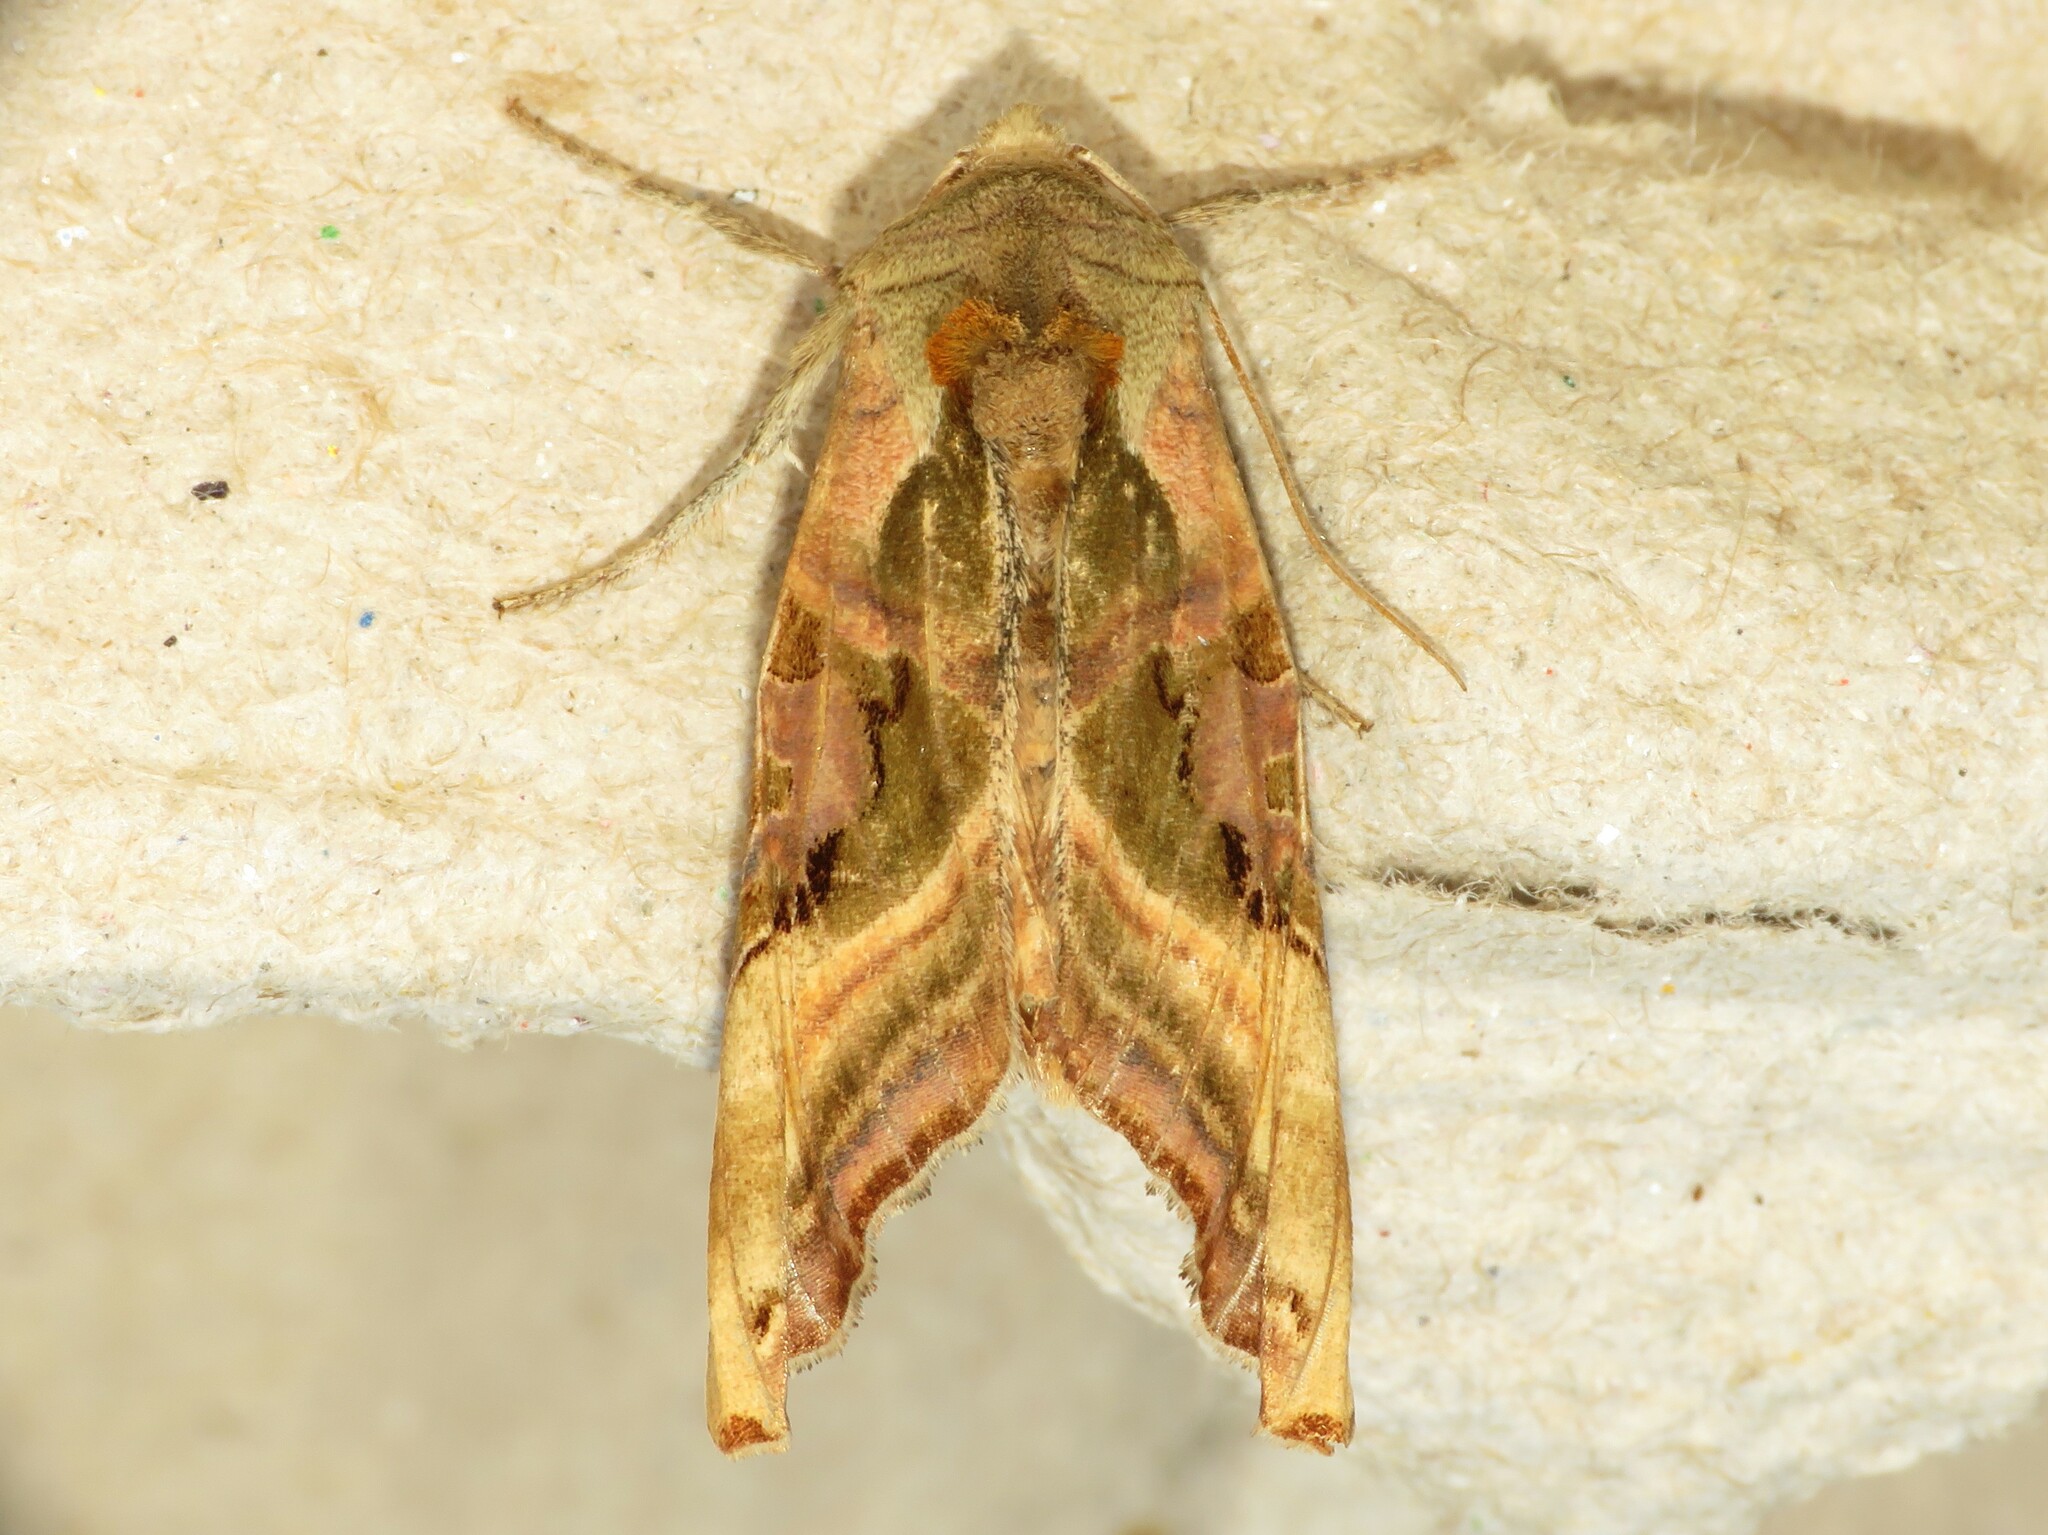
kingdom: Animalia
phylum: Arthropoda
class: Insecta
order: Lepidoptera
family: Noctuidae
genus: Phlogophora
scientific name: Phlogophora iris
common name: Olive angle shades
